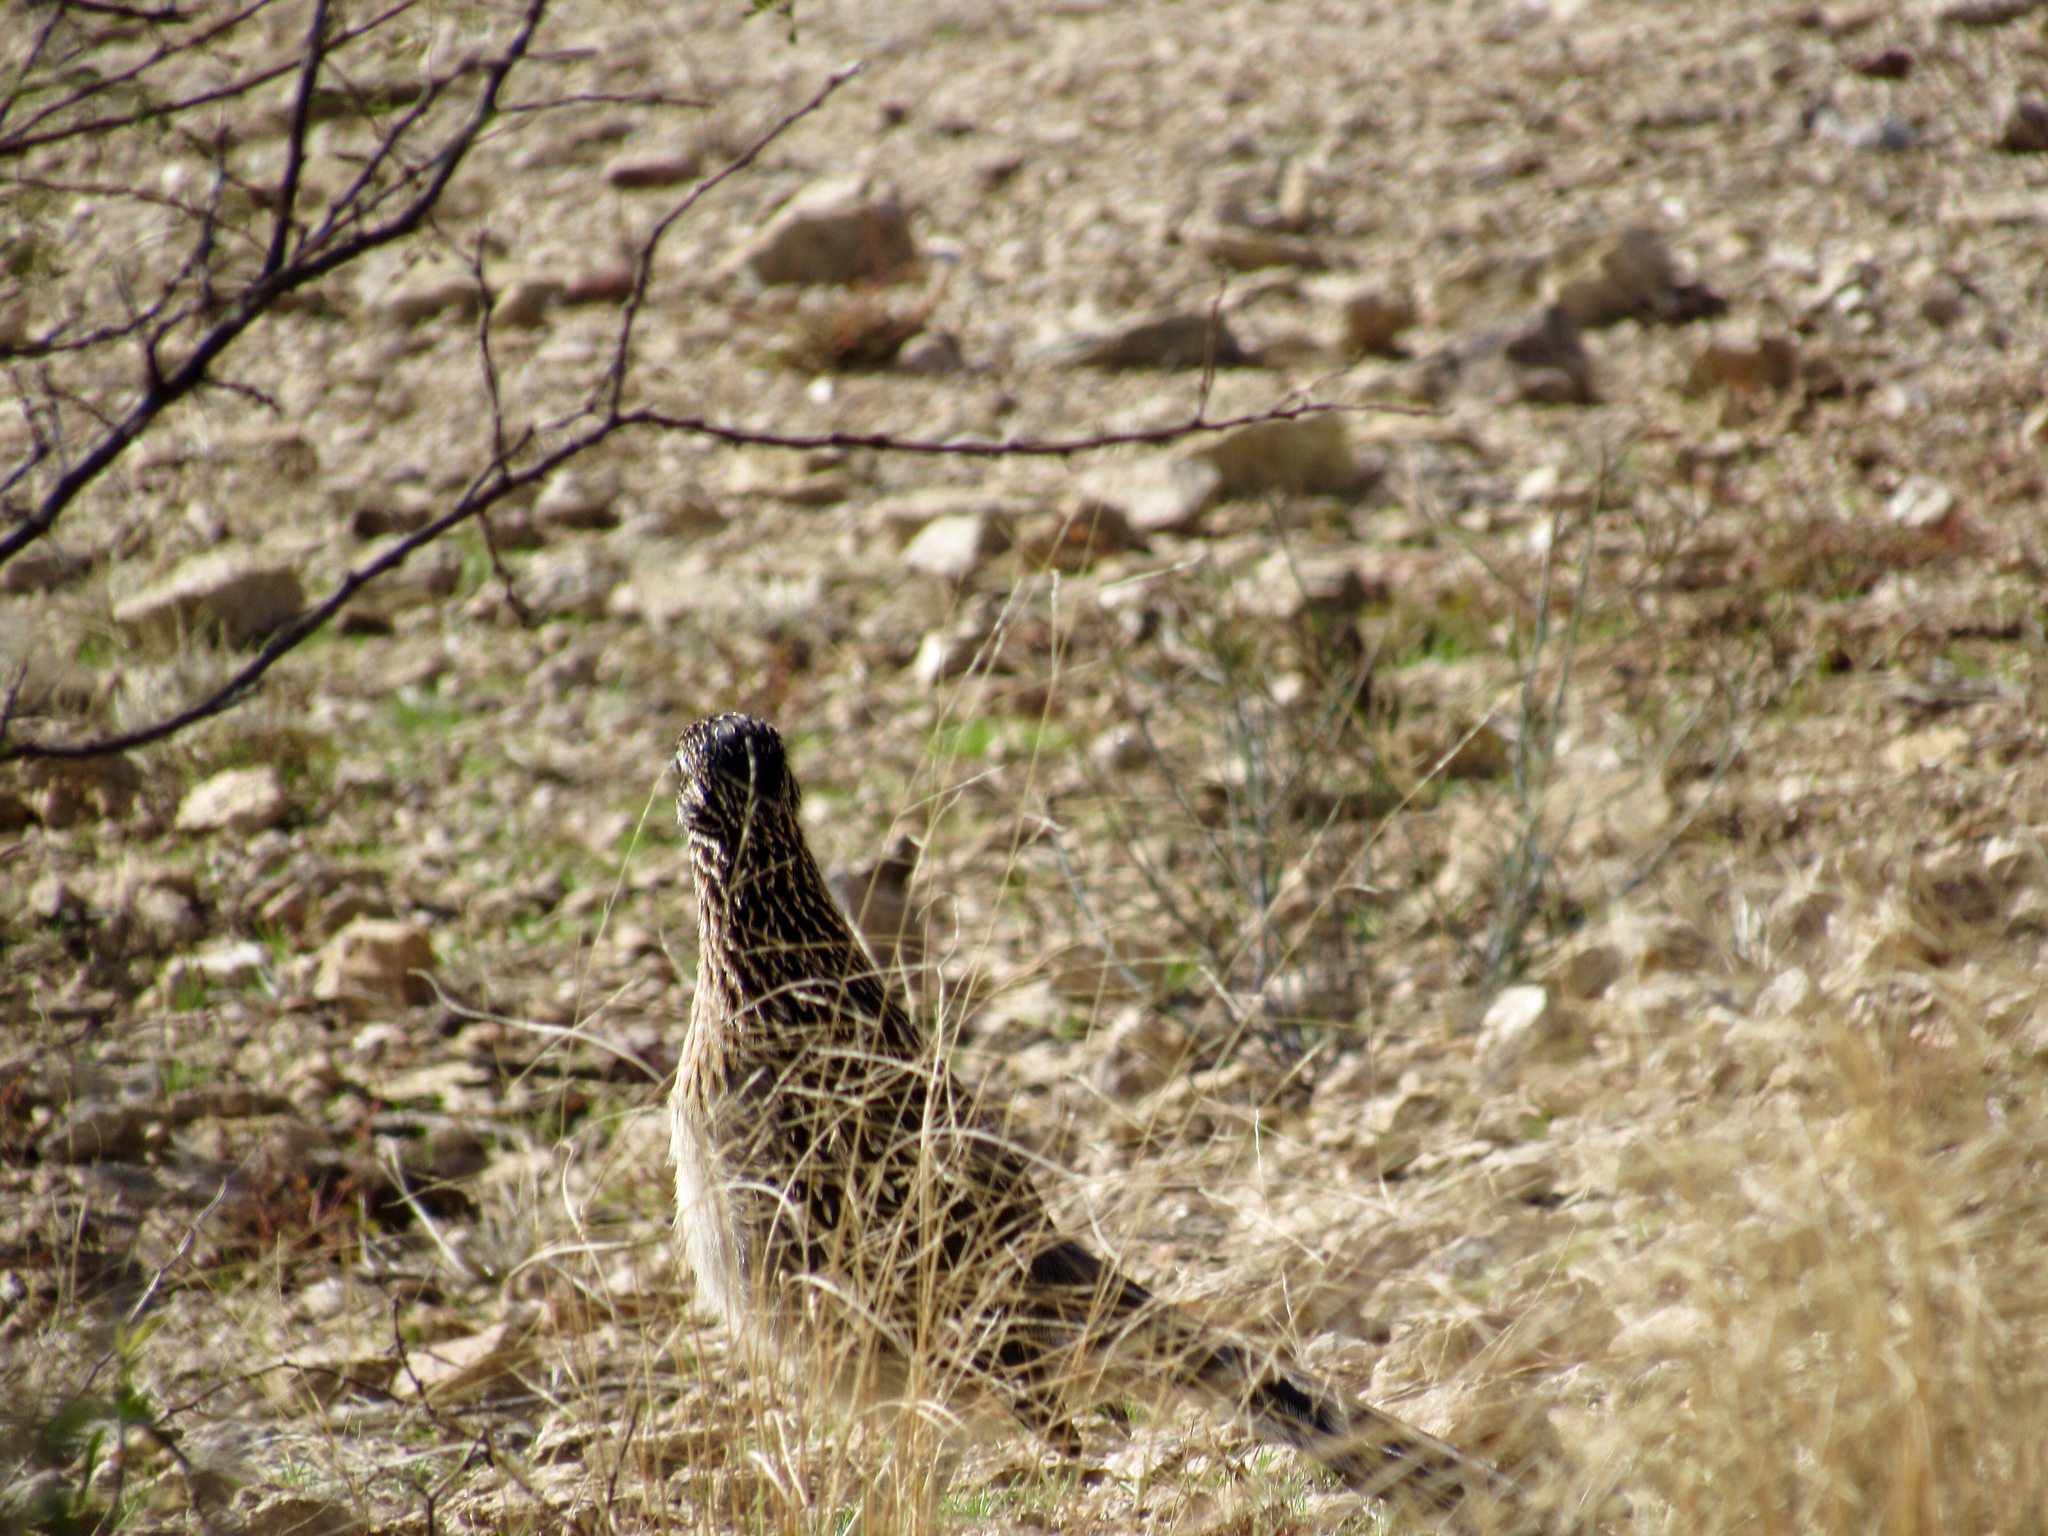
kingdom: Animalia
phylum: Chordata
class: Aves
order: Cuculiformes
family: Cuculidae
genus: Geococcyx
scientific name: Geococcyx californianus
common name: Greater roadrunner
